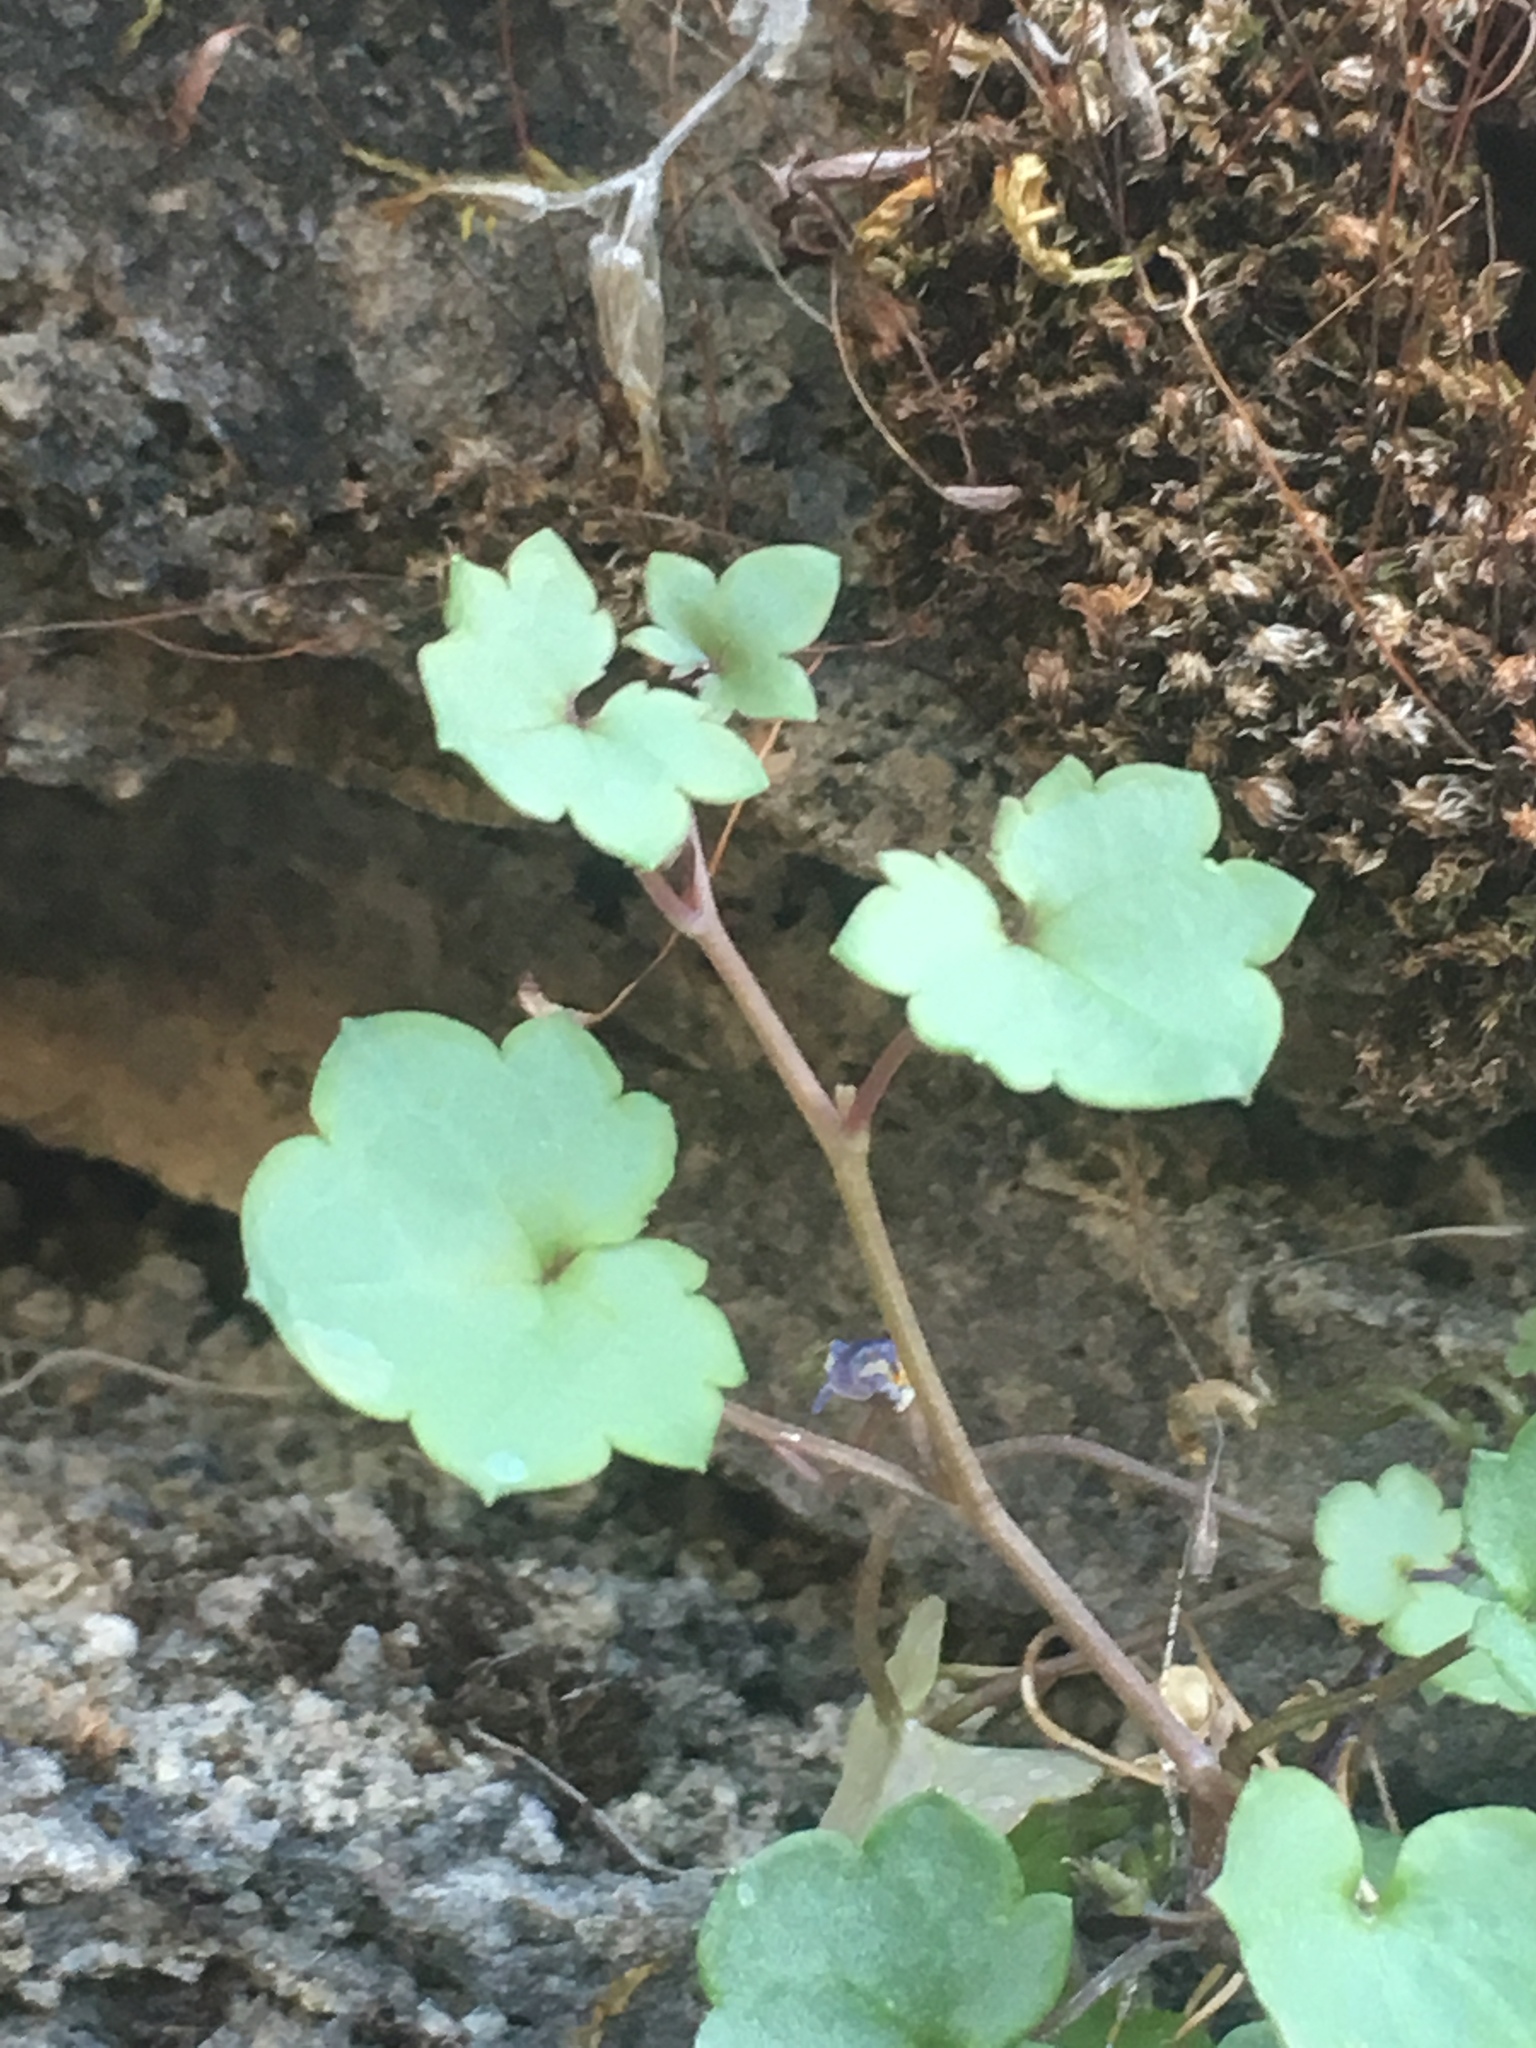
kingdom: Plantae
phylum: Tracheophyta
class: Magnoliopsida
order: Lamiales
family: Plantaginaceae
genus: Cymbalaria
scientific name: Cymbalaria muralis
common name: Ivy-leaved toadflax
